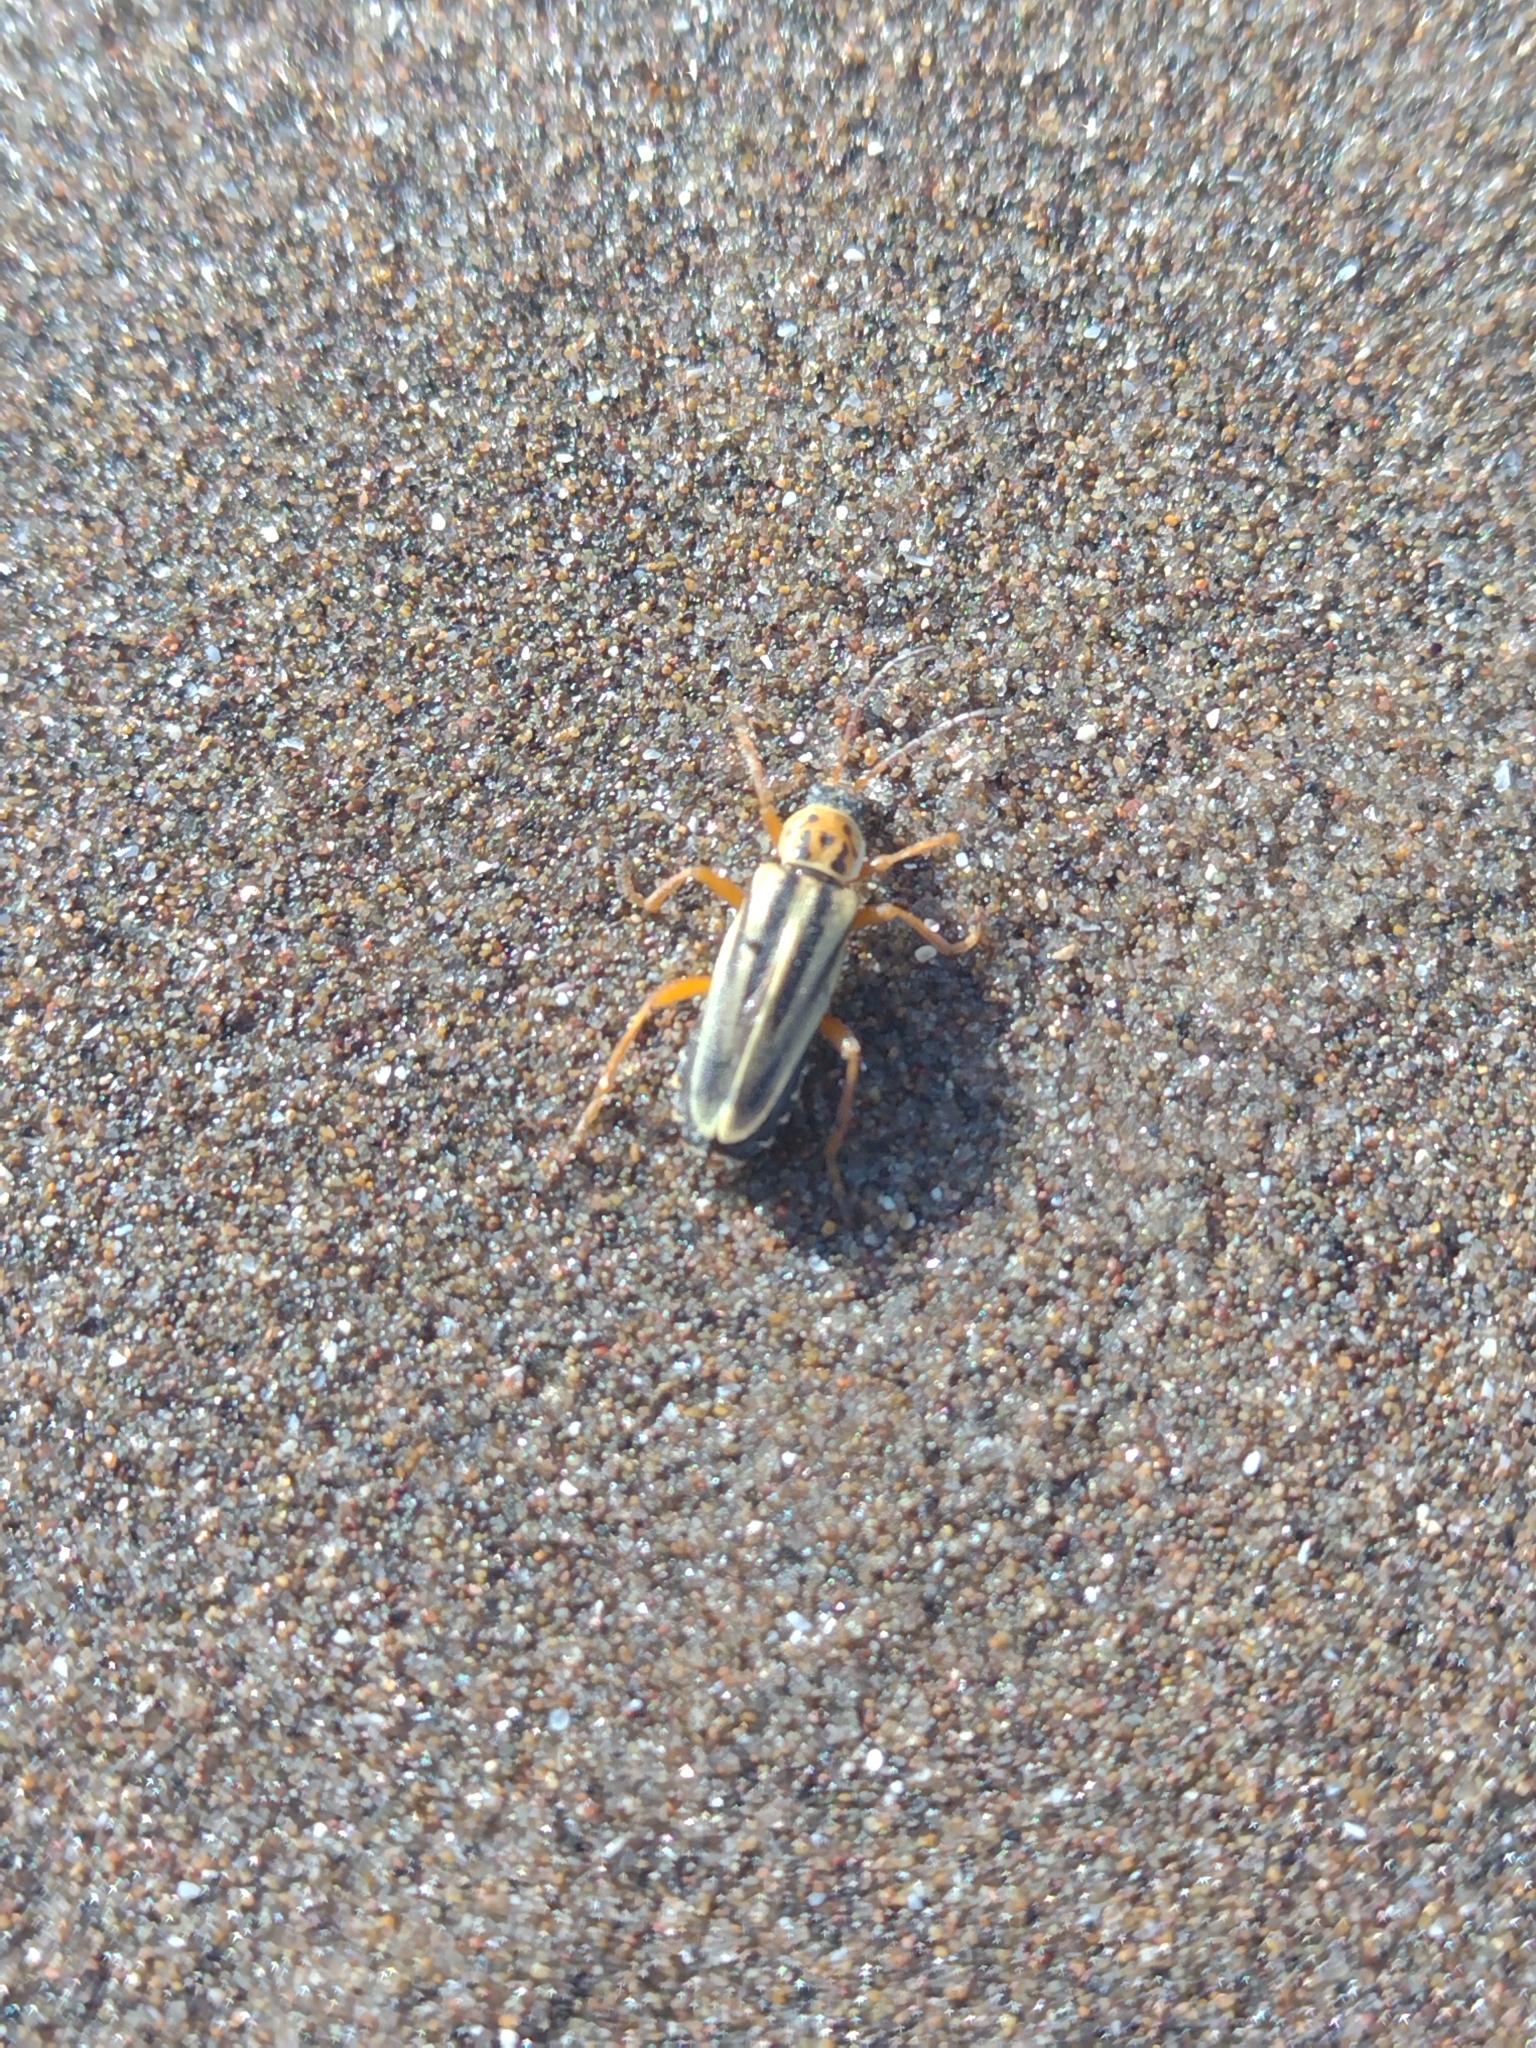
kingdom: Animalia
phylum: Arthropoda
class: Insecta
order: Coleoptera
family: Cantharidae
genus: Chauliognathus
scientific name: Chauliognathus
